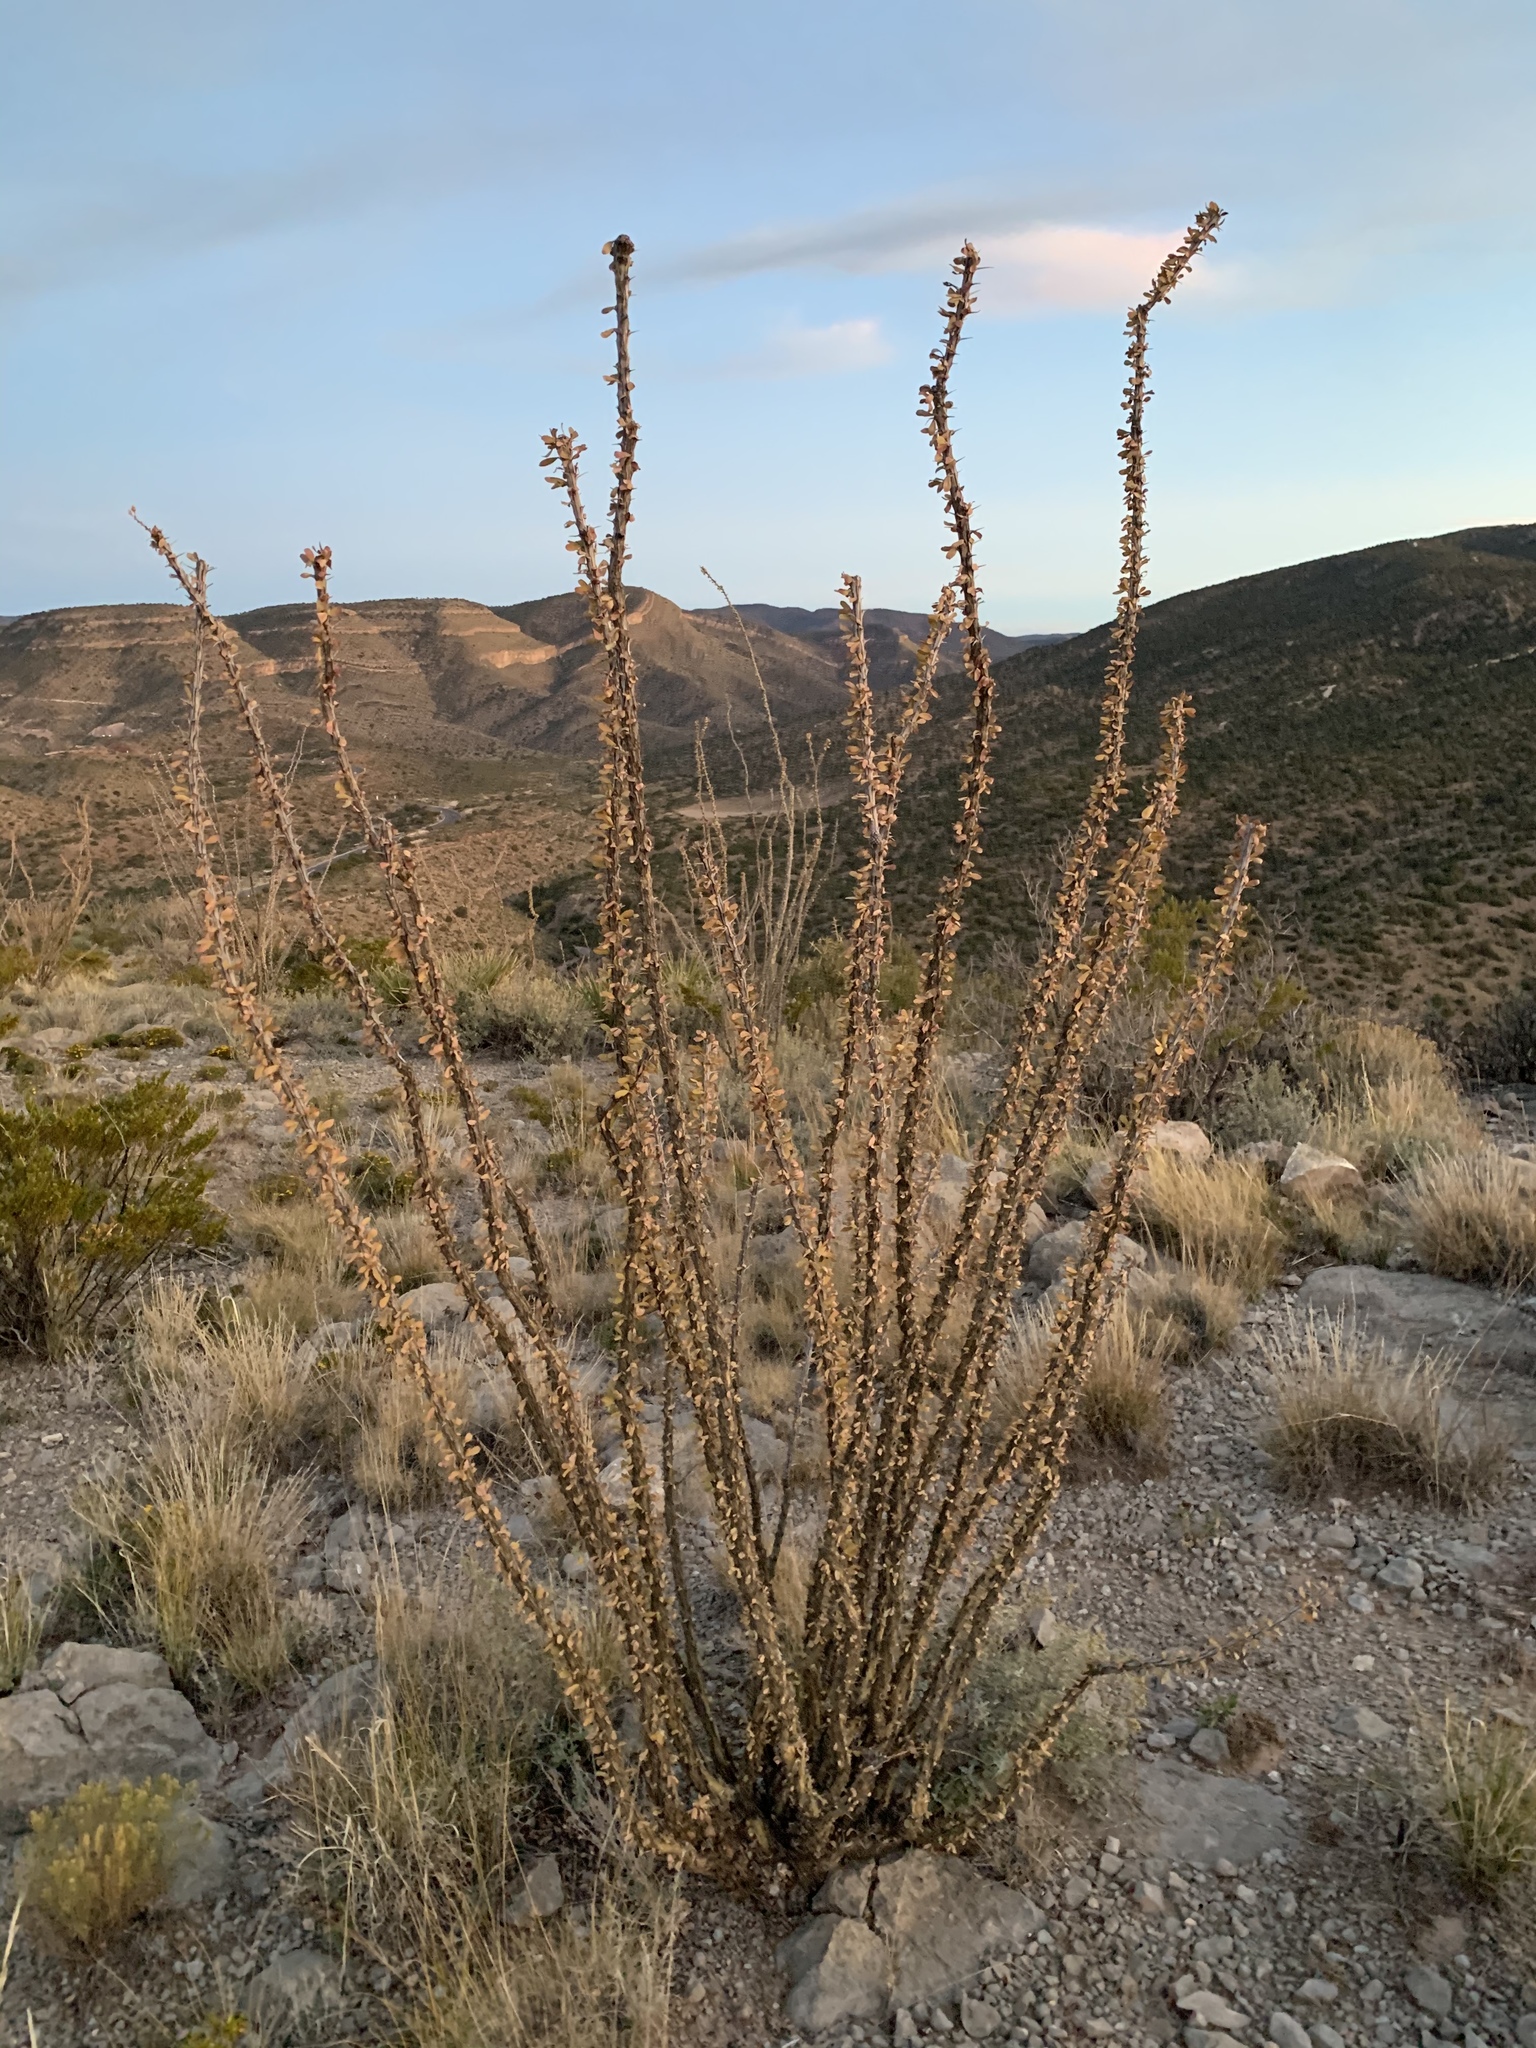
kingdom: Plantae
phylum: Tracheophyta
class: Magnoliopsida
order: Ericales
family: Fouquieriaceae
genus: Fouquieria
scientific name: Fouquieria splendens
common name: Vine-cactus
